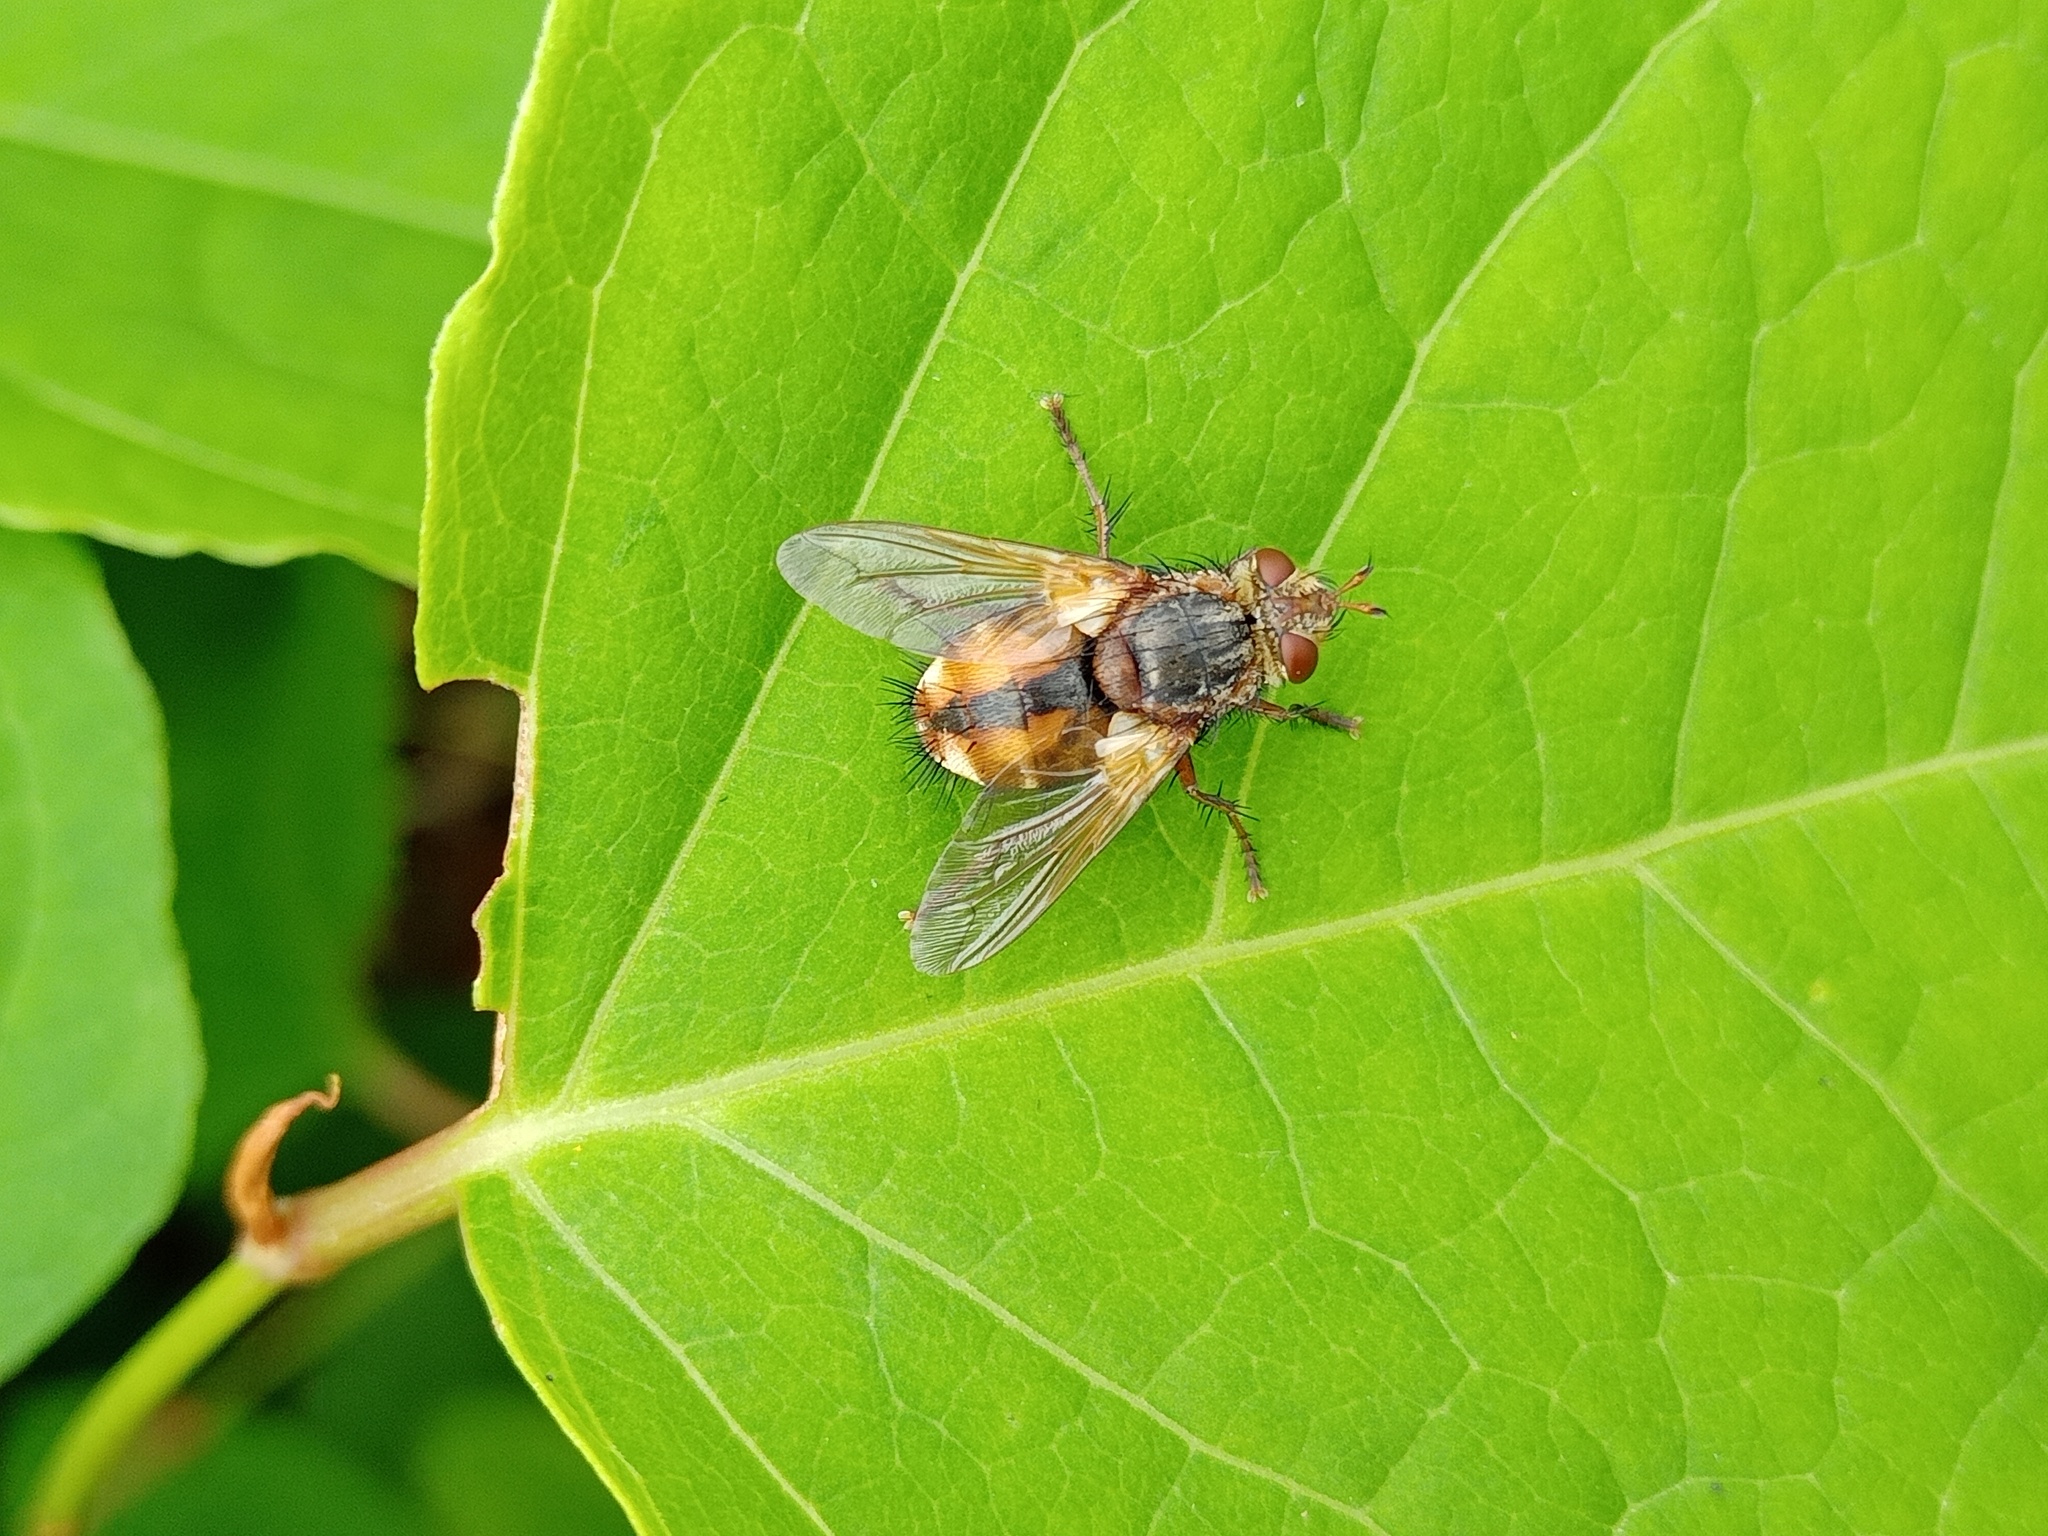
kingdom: Animalia
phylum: Arthropoda
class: Insecta
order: Diptera
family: Tachinidae
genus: Tachina
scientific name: Tachina fera
